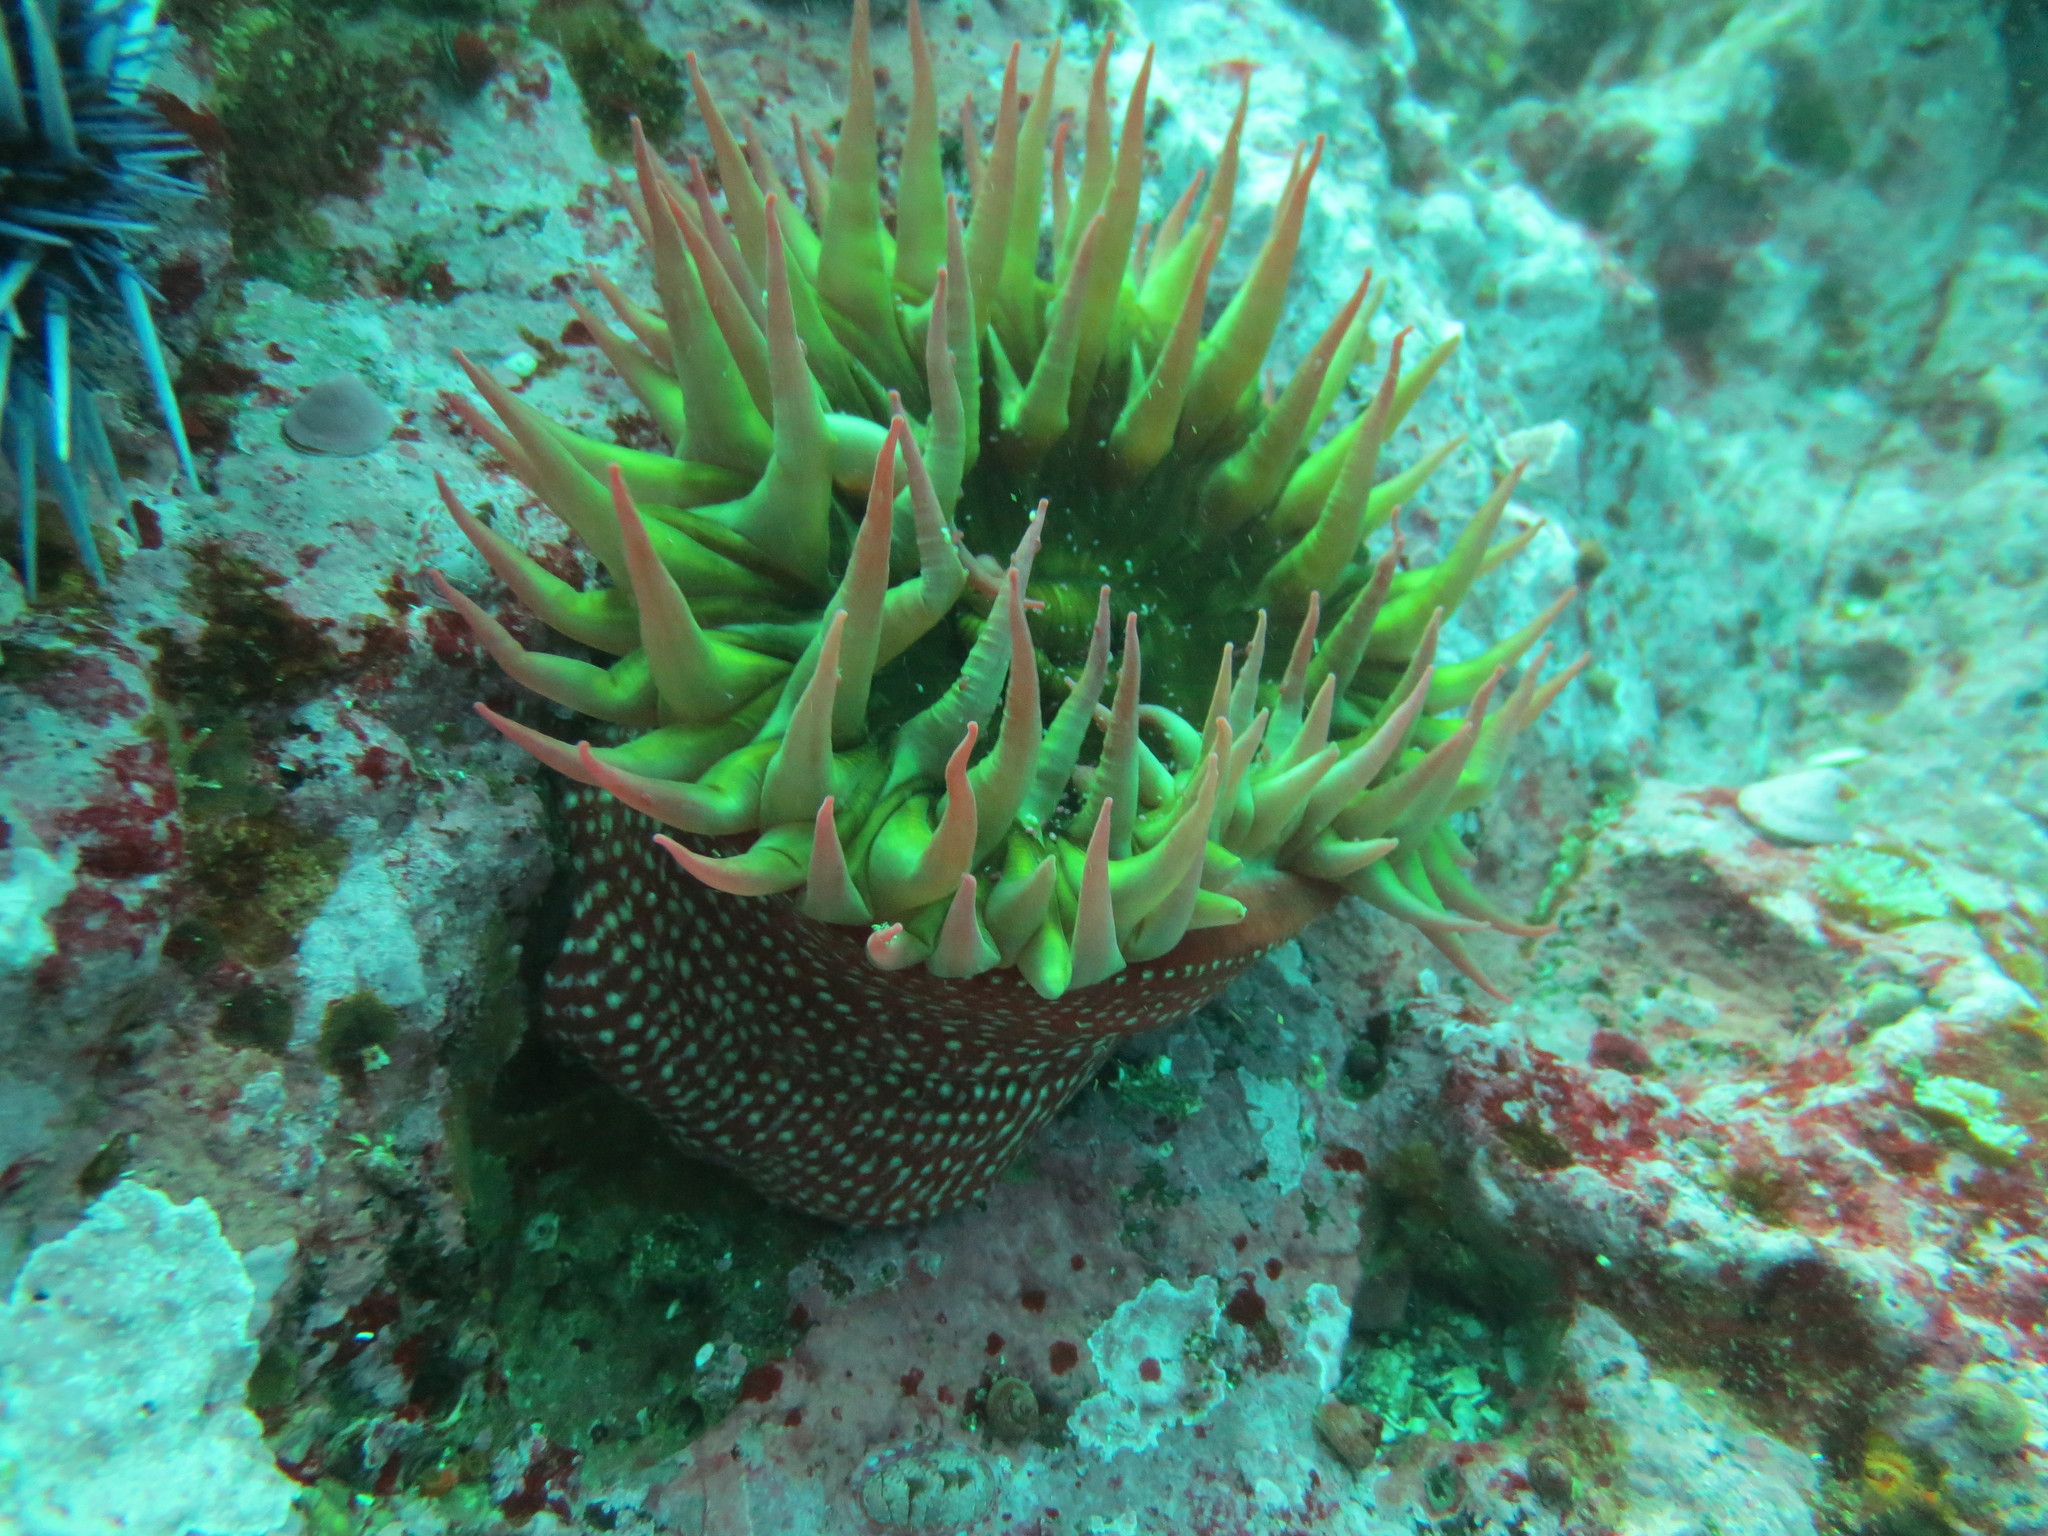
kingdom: Animalia
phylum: Cnidaria
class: Anthozoa
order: Actiniaria
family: Actiniidae
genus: Cribrinopsis
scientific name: Cribrinopsis albopunctata
